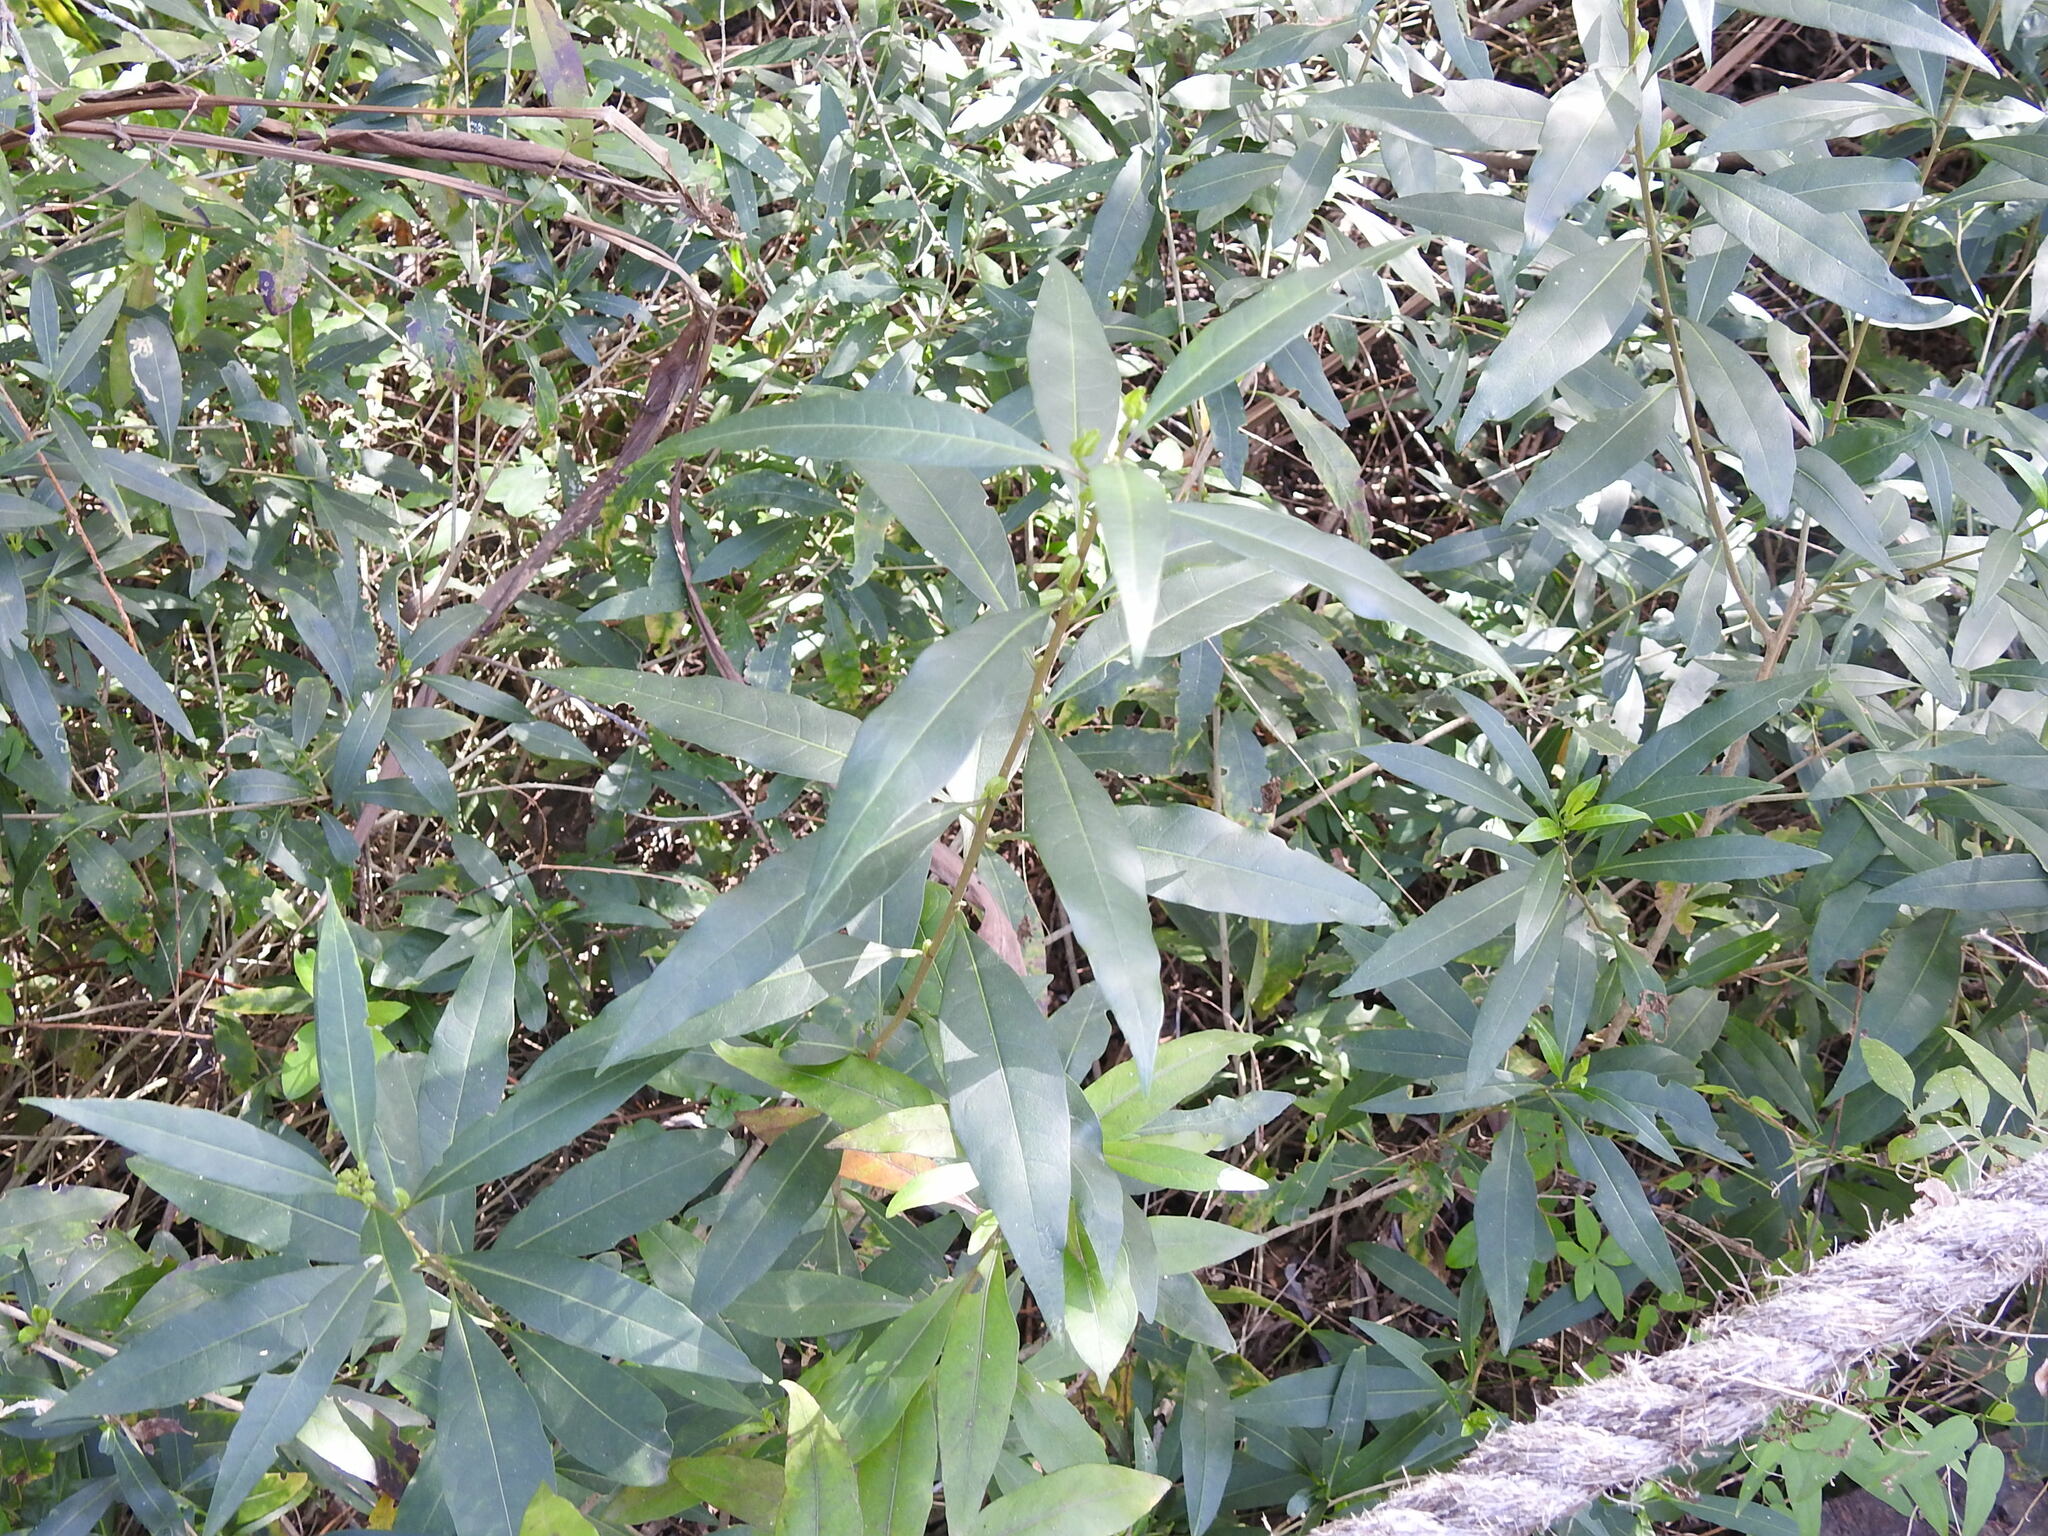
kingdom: Plantae
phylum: Tracheophyta
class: Magnoliopsida
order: Solanales
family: Solanaceae
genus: Cestrum
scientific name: Cestrum parqui
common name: Chilean cestrum
